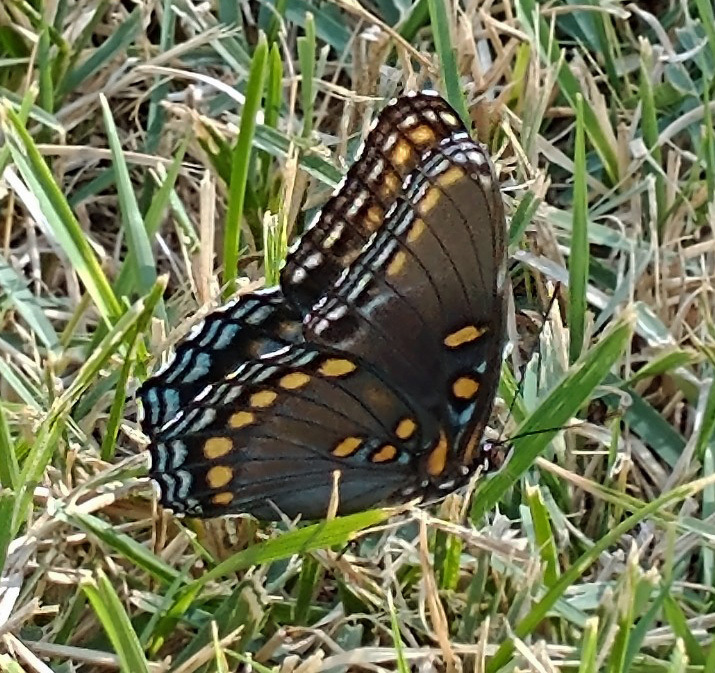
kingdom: Animalia
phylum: Arthropoda
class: Insecta
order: Lepidoptera
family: Nymphalidae
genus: Limenitis
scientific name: Limenitis astyanax
